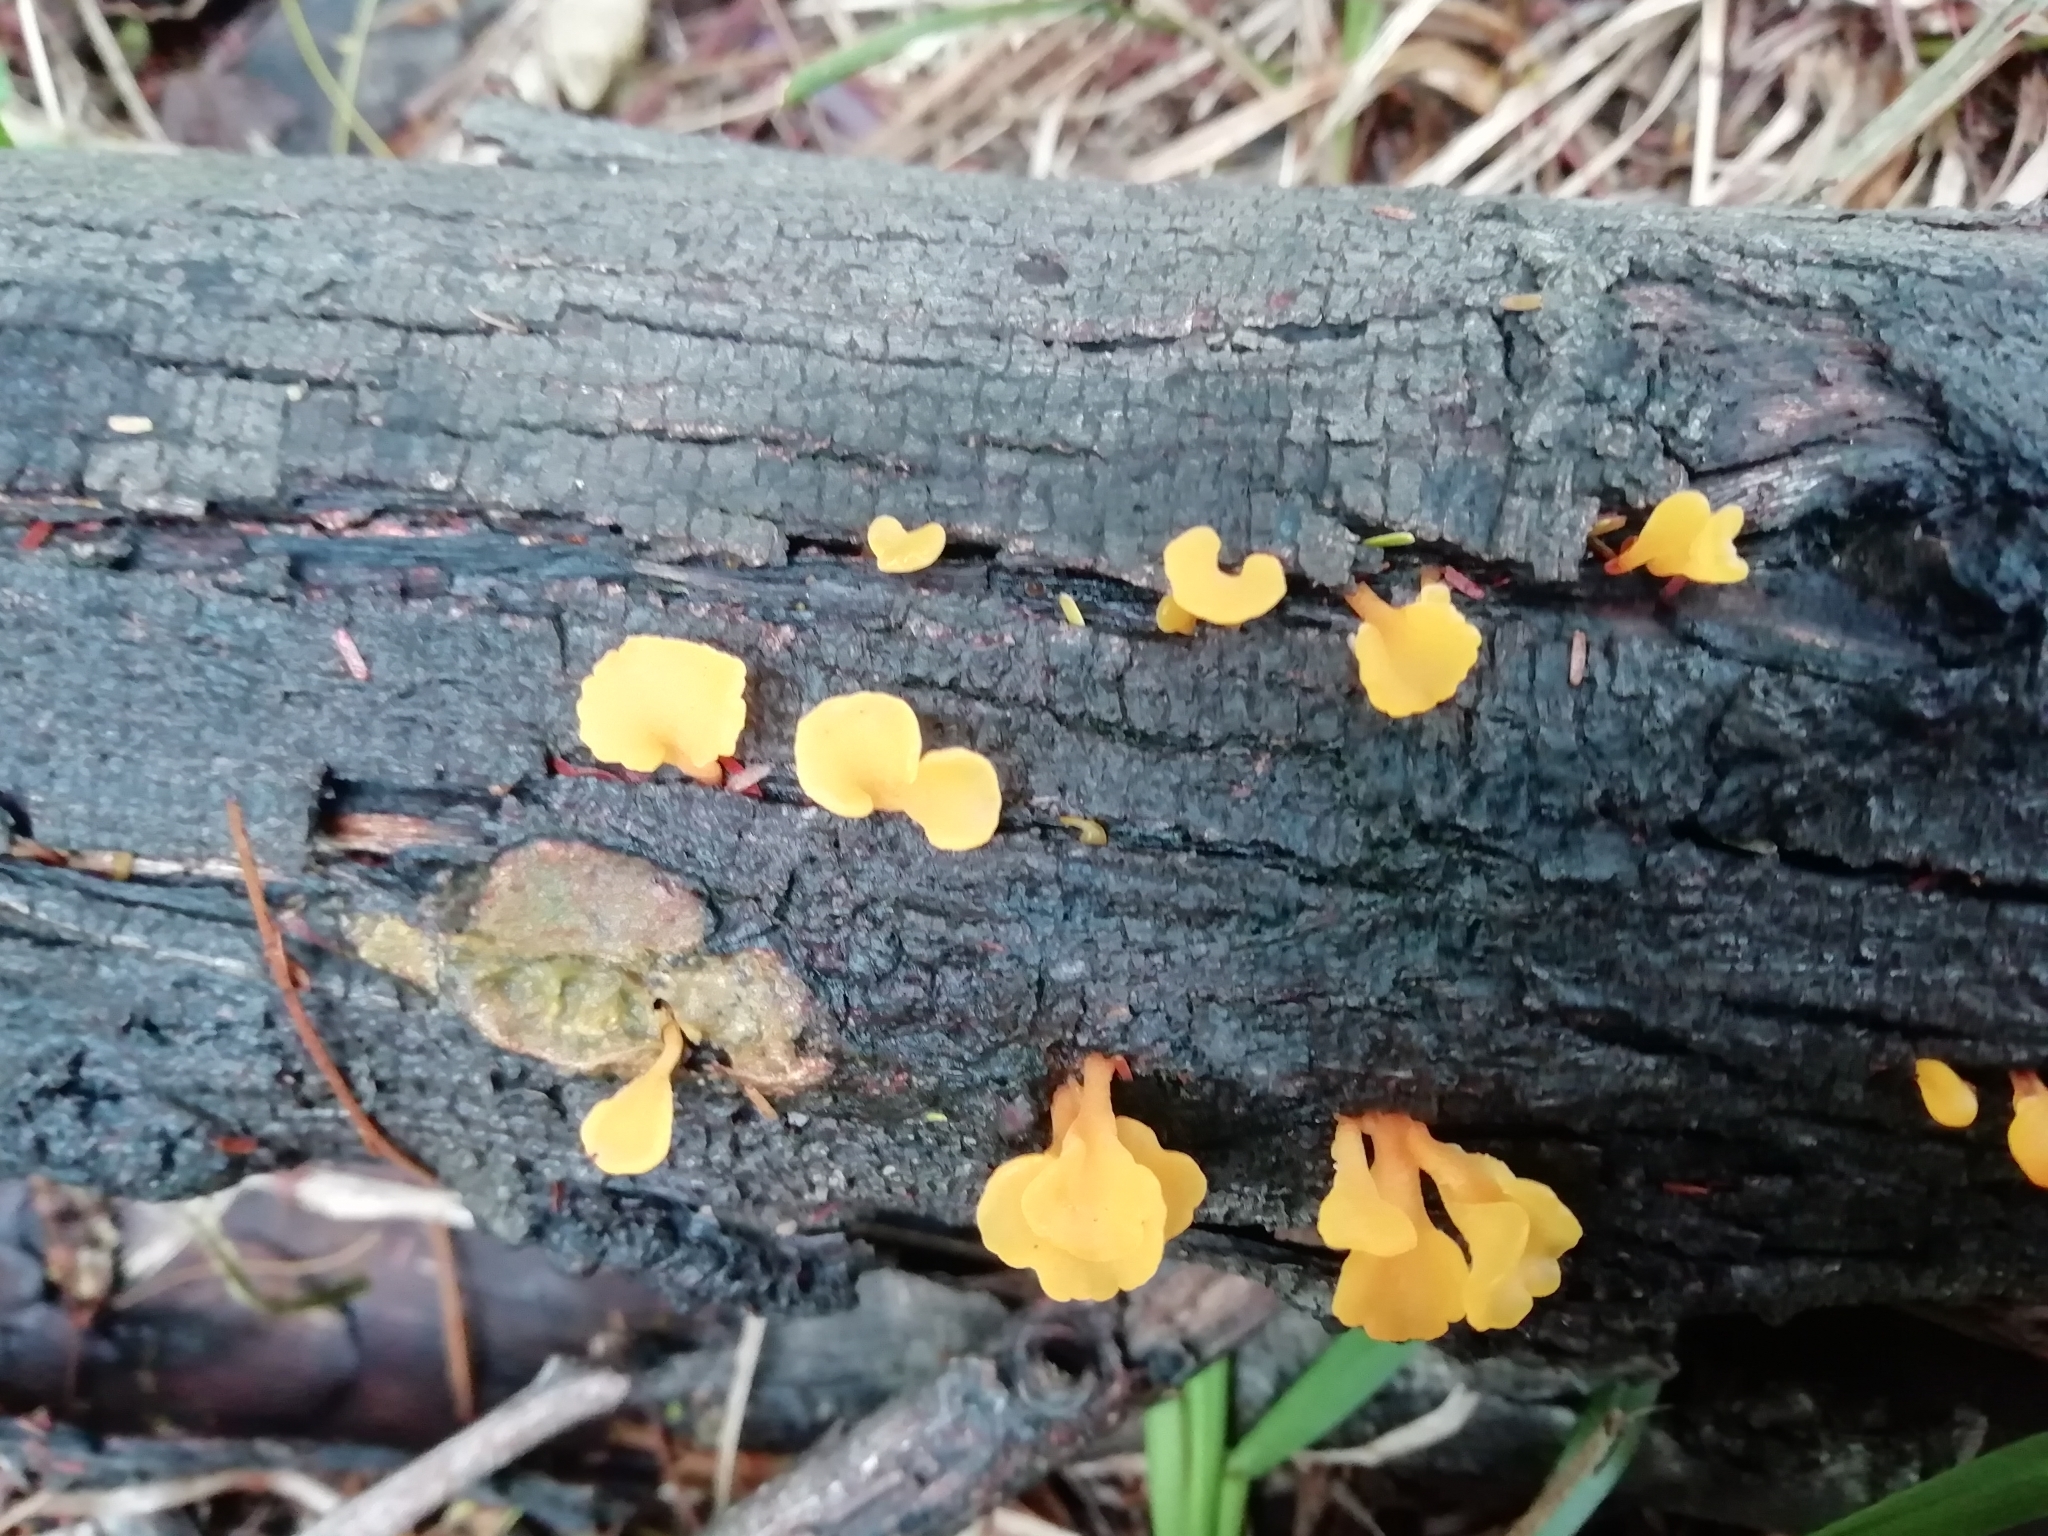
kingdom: Fungi
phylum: Basidiomycota
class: Dacrymycetes
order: Dacrymycetales
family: Dacrymycetaceae
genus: Dacrymyces
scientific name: Dacrymyces spathularius
